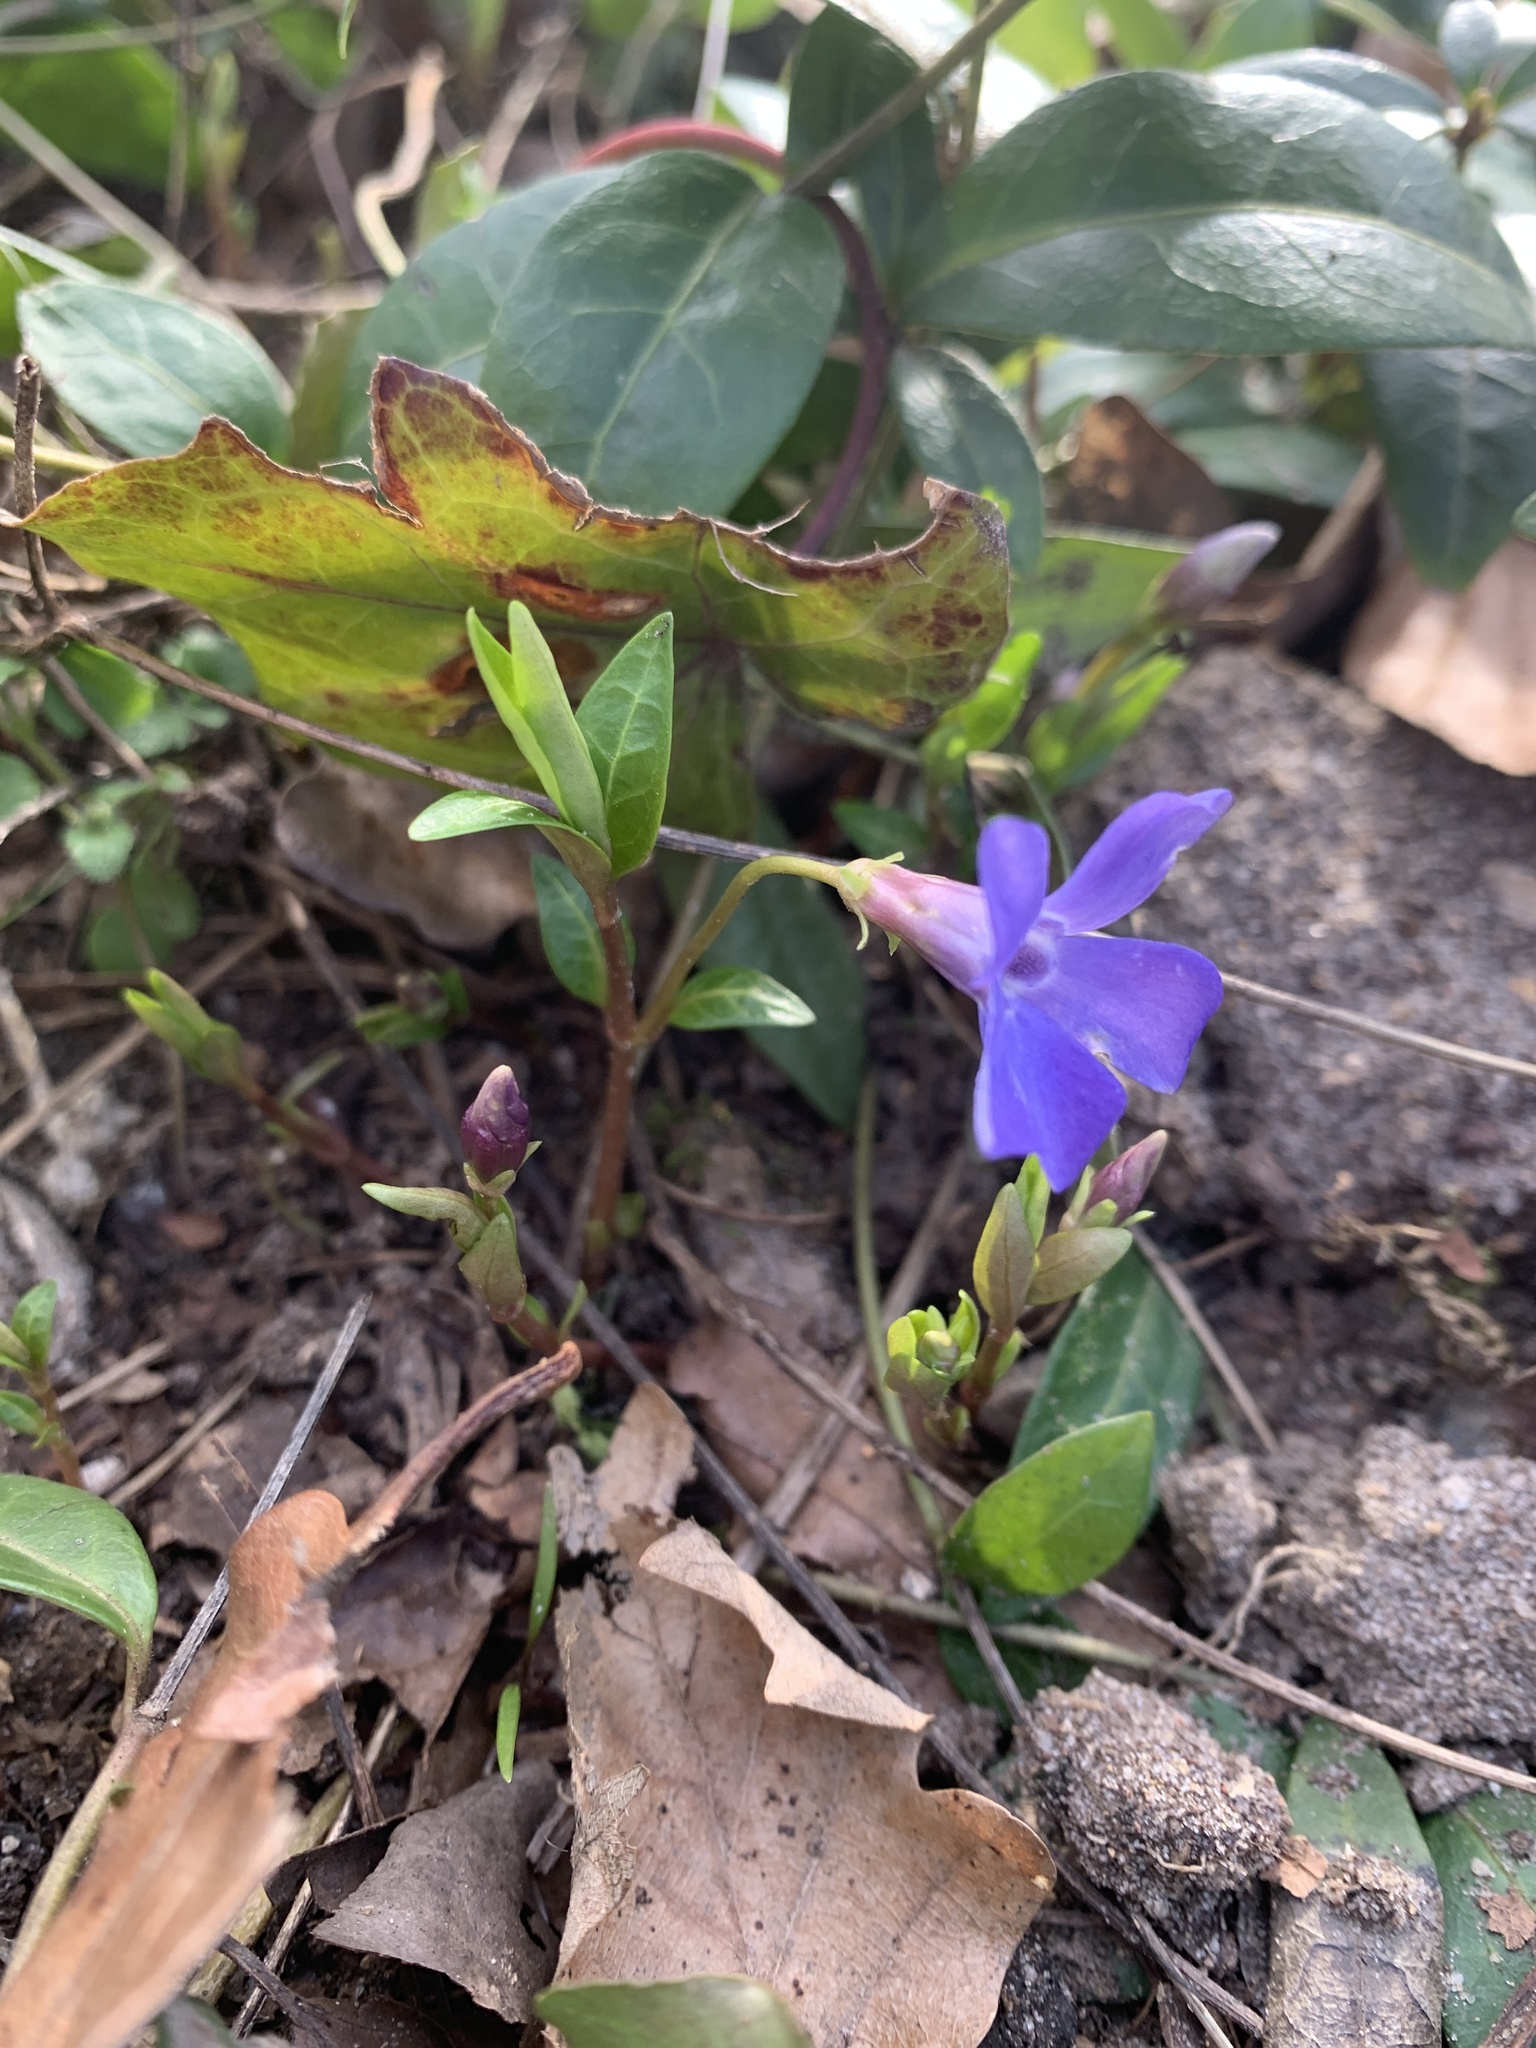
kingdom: Plantae
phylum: Tracheophyta
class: Magnoliopsida
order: Gentianales
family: Apocynaceae
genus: Vinca
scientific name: Vinca minor
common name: Lesser periwinkle
